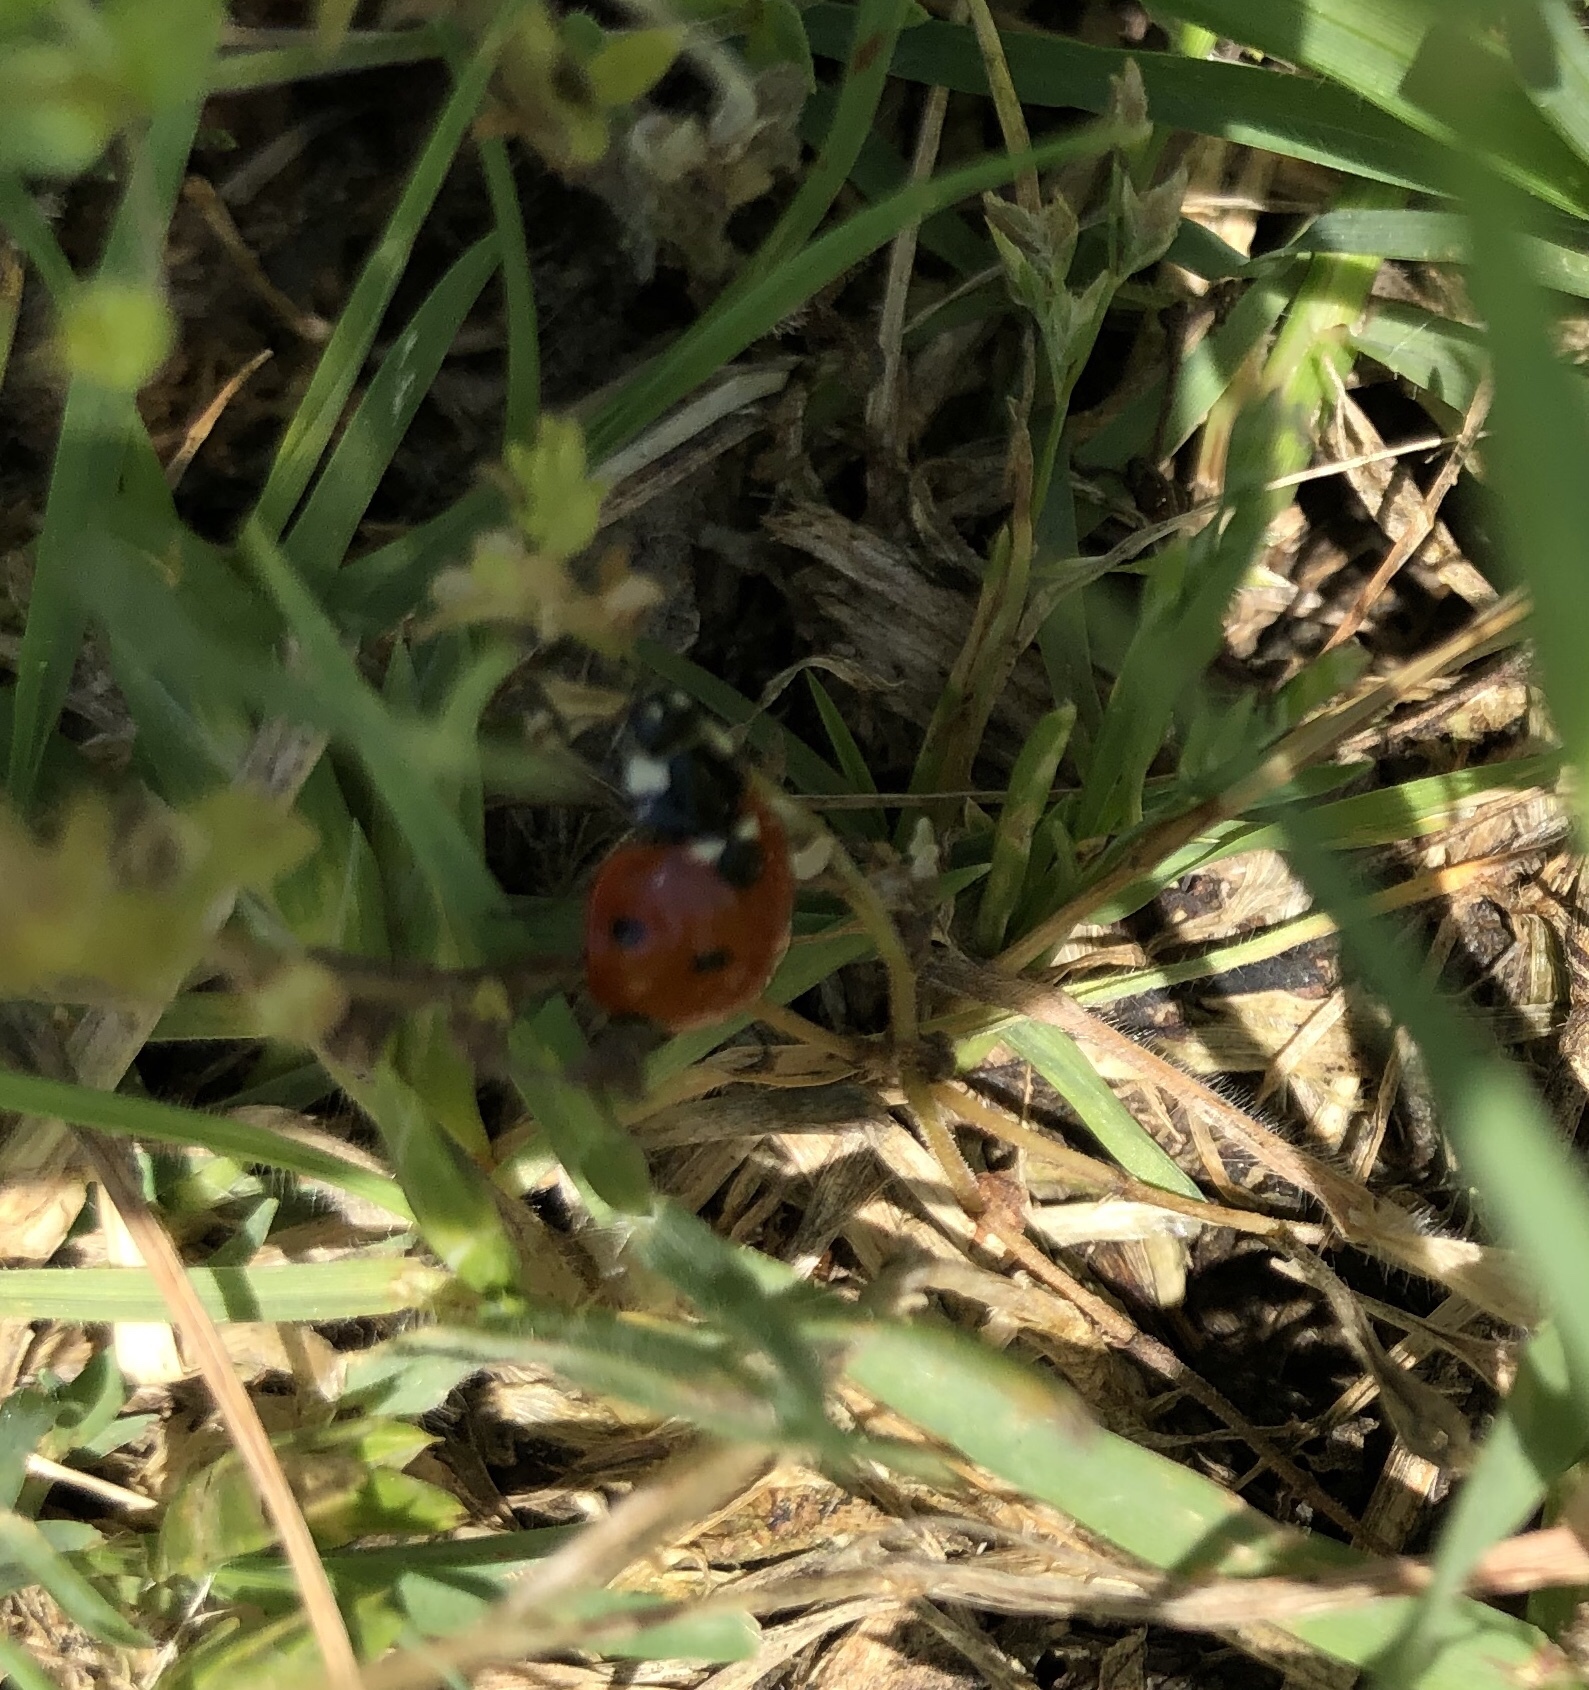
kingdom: Animalia
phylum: Arthropoda
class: Insecta
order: Coleoptera
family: Coccinellidae
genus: Coccinella
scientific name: Coccinella septempunctata
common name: Sevenspotted lady beetle
